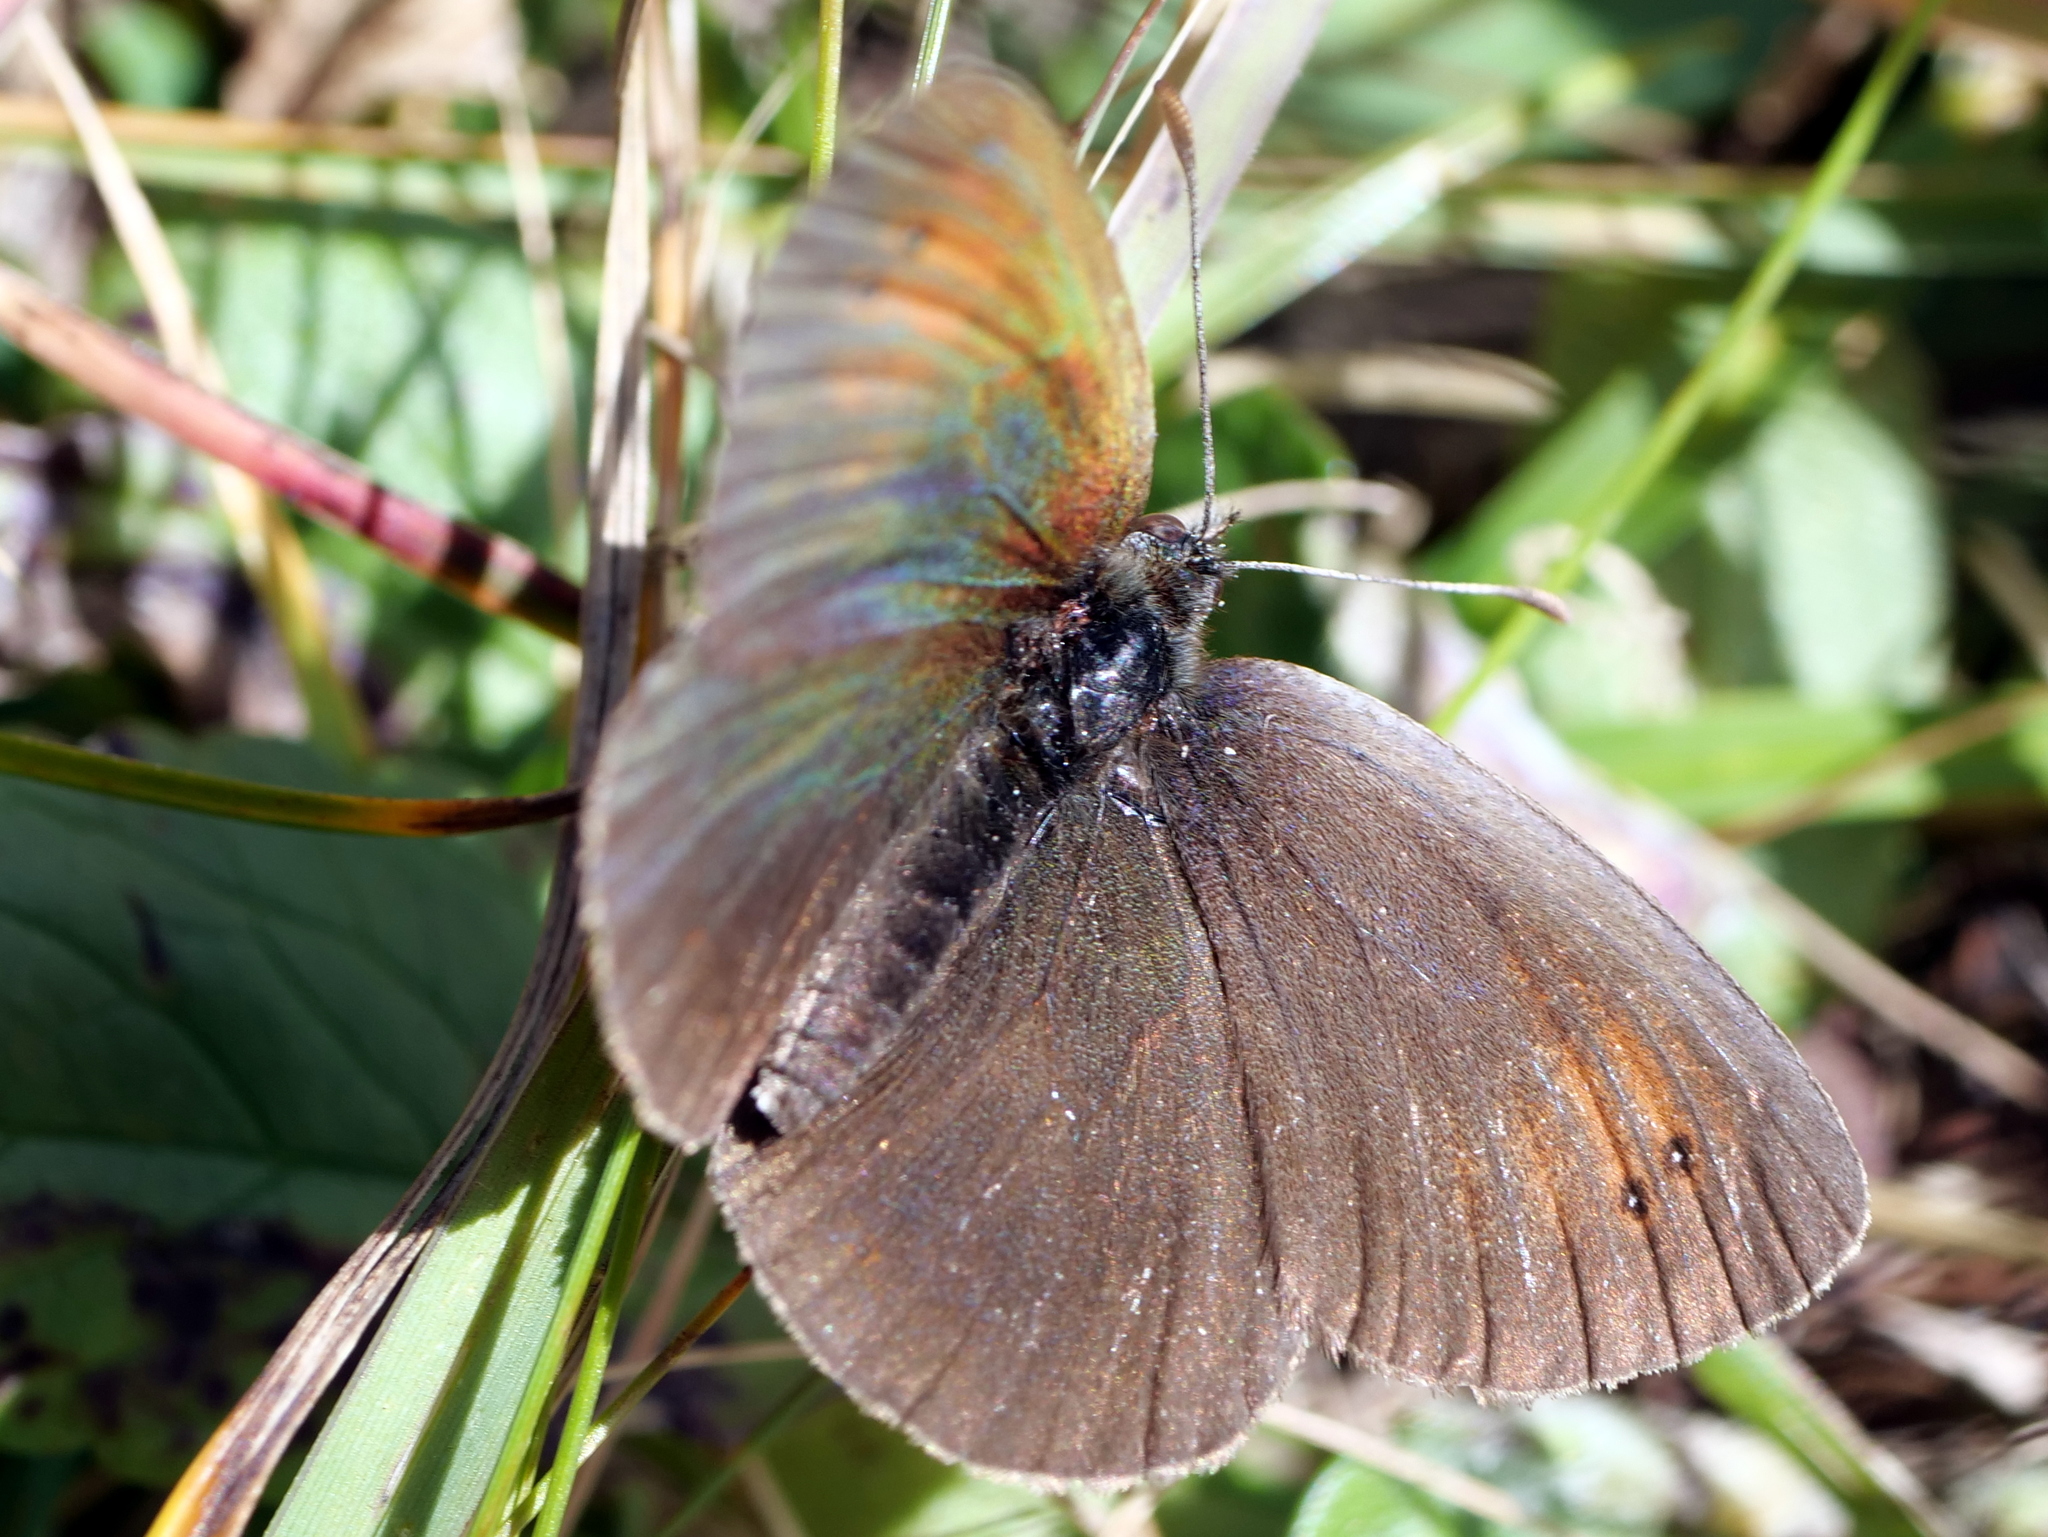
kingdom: Animalia
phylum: Arthropoda
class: Insecta
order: Lepidoptera
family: Nymphalidae
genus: Erebia
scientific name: Erebia tyndarus
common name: Swiss brassy ringlet
